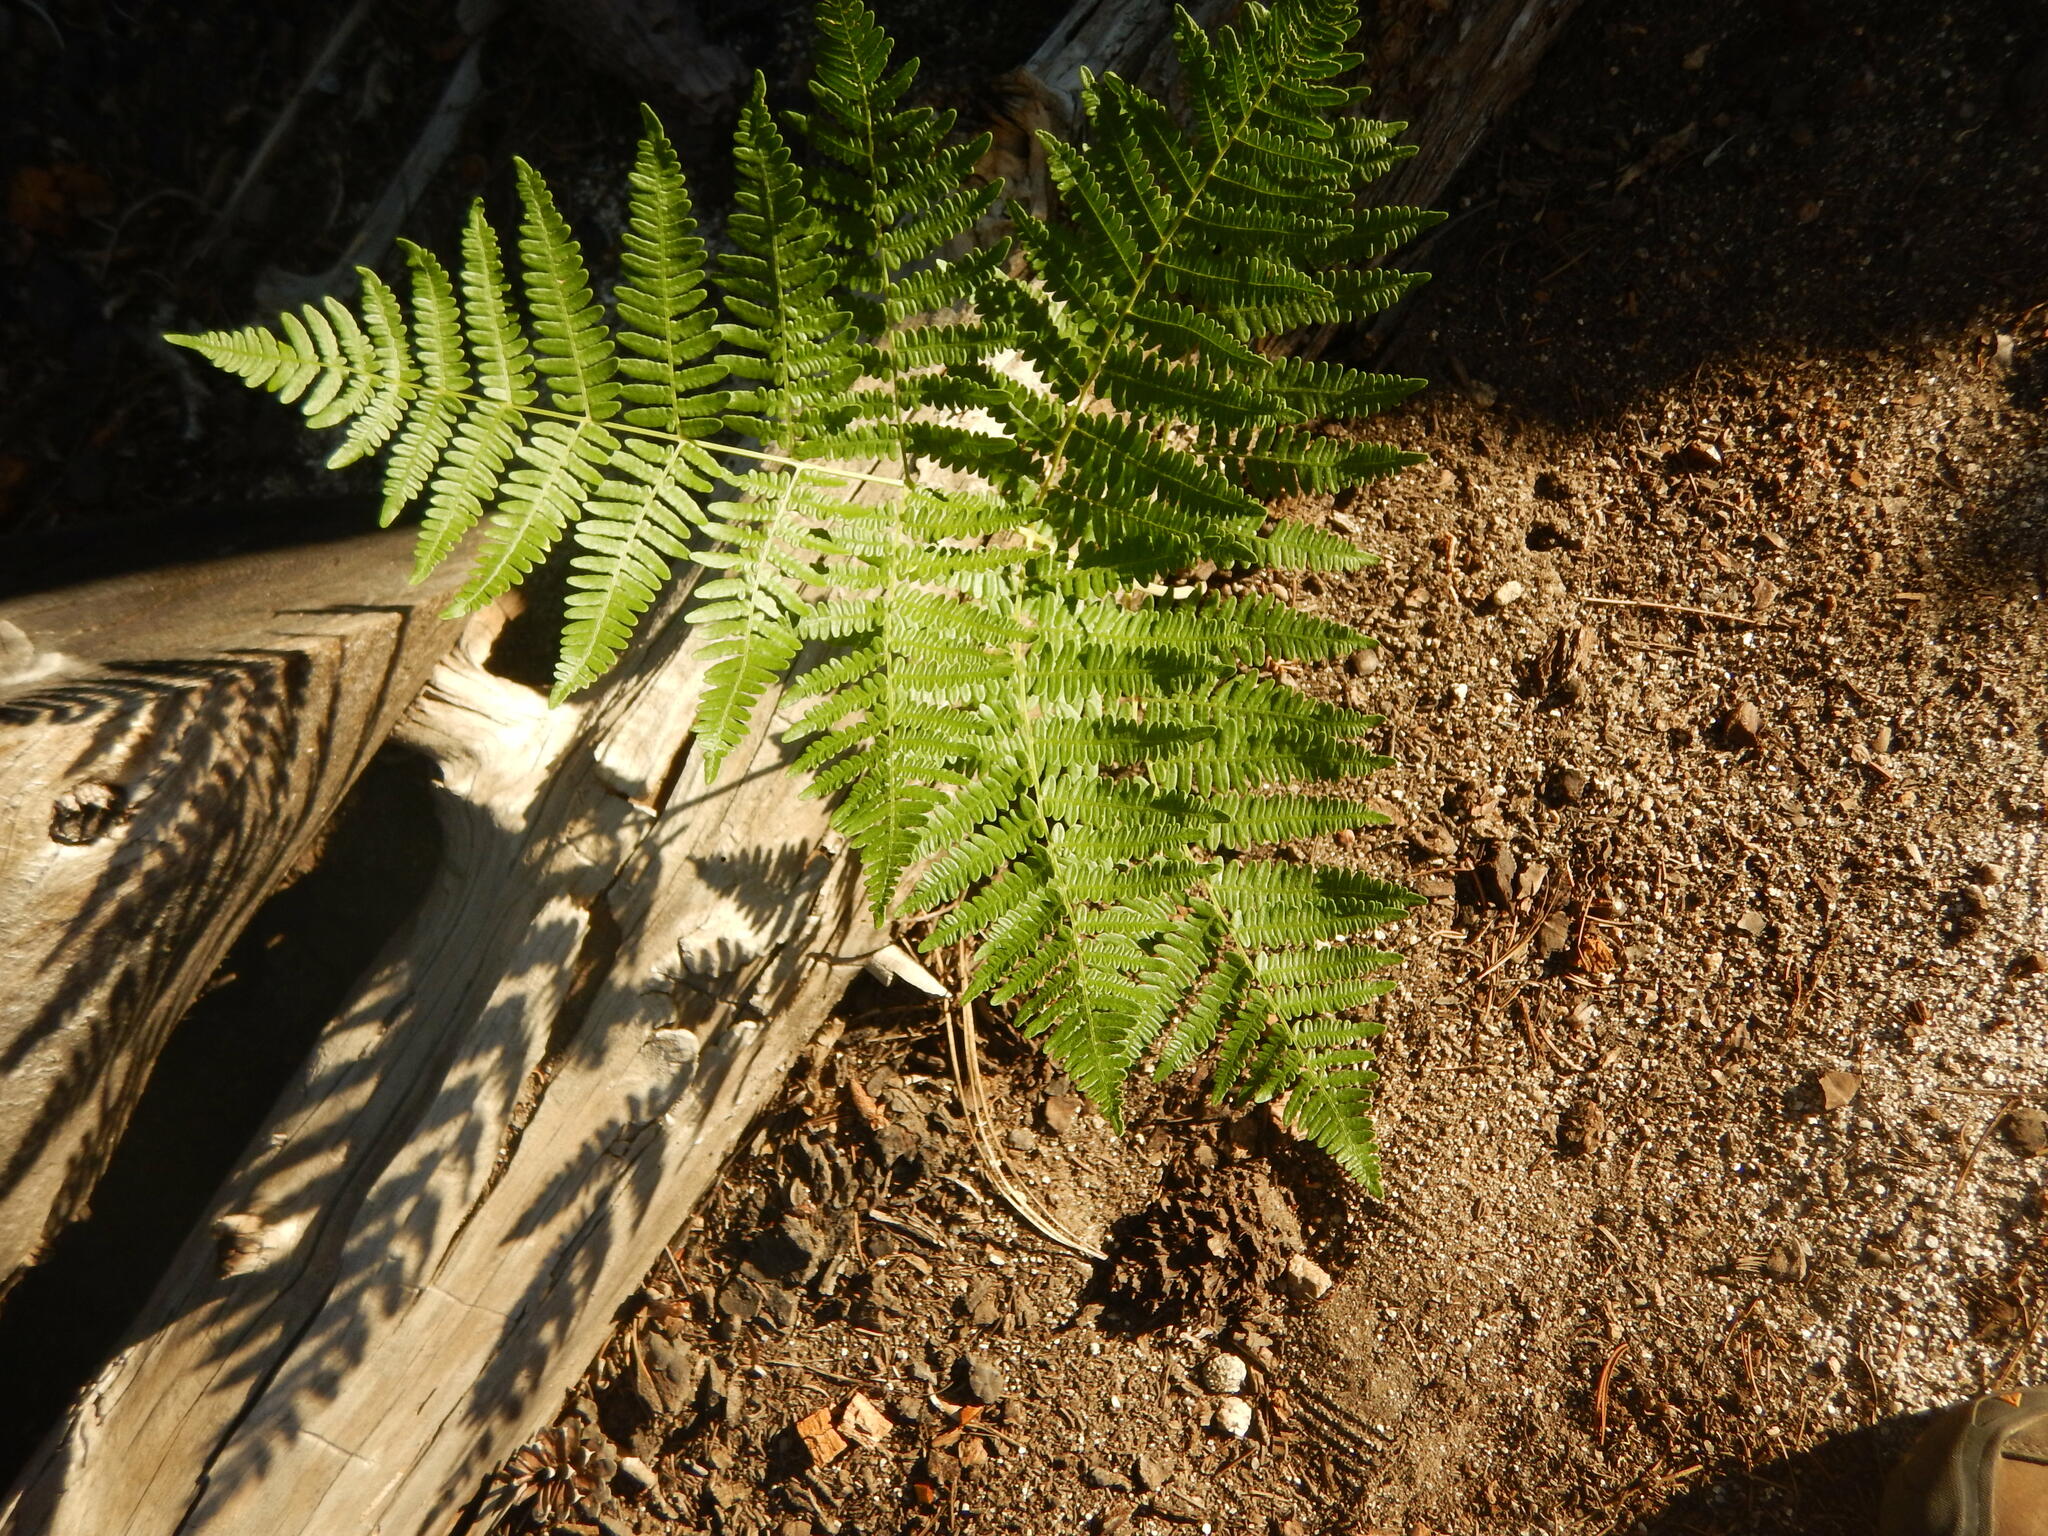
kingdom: Plantae
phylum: Tracheophyta
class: Polypodiopsida
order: Polypodiales
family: Dennstaedtiaceae
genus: Pteridium
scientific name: Pteridium aquilinum
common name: Bracken
